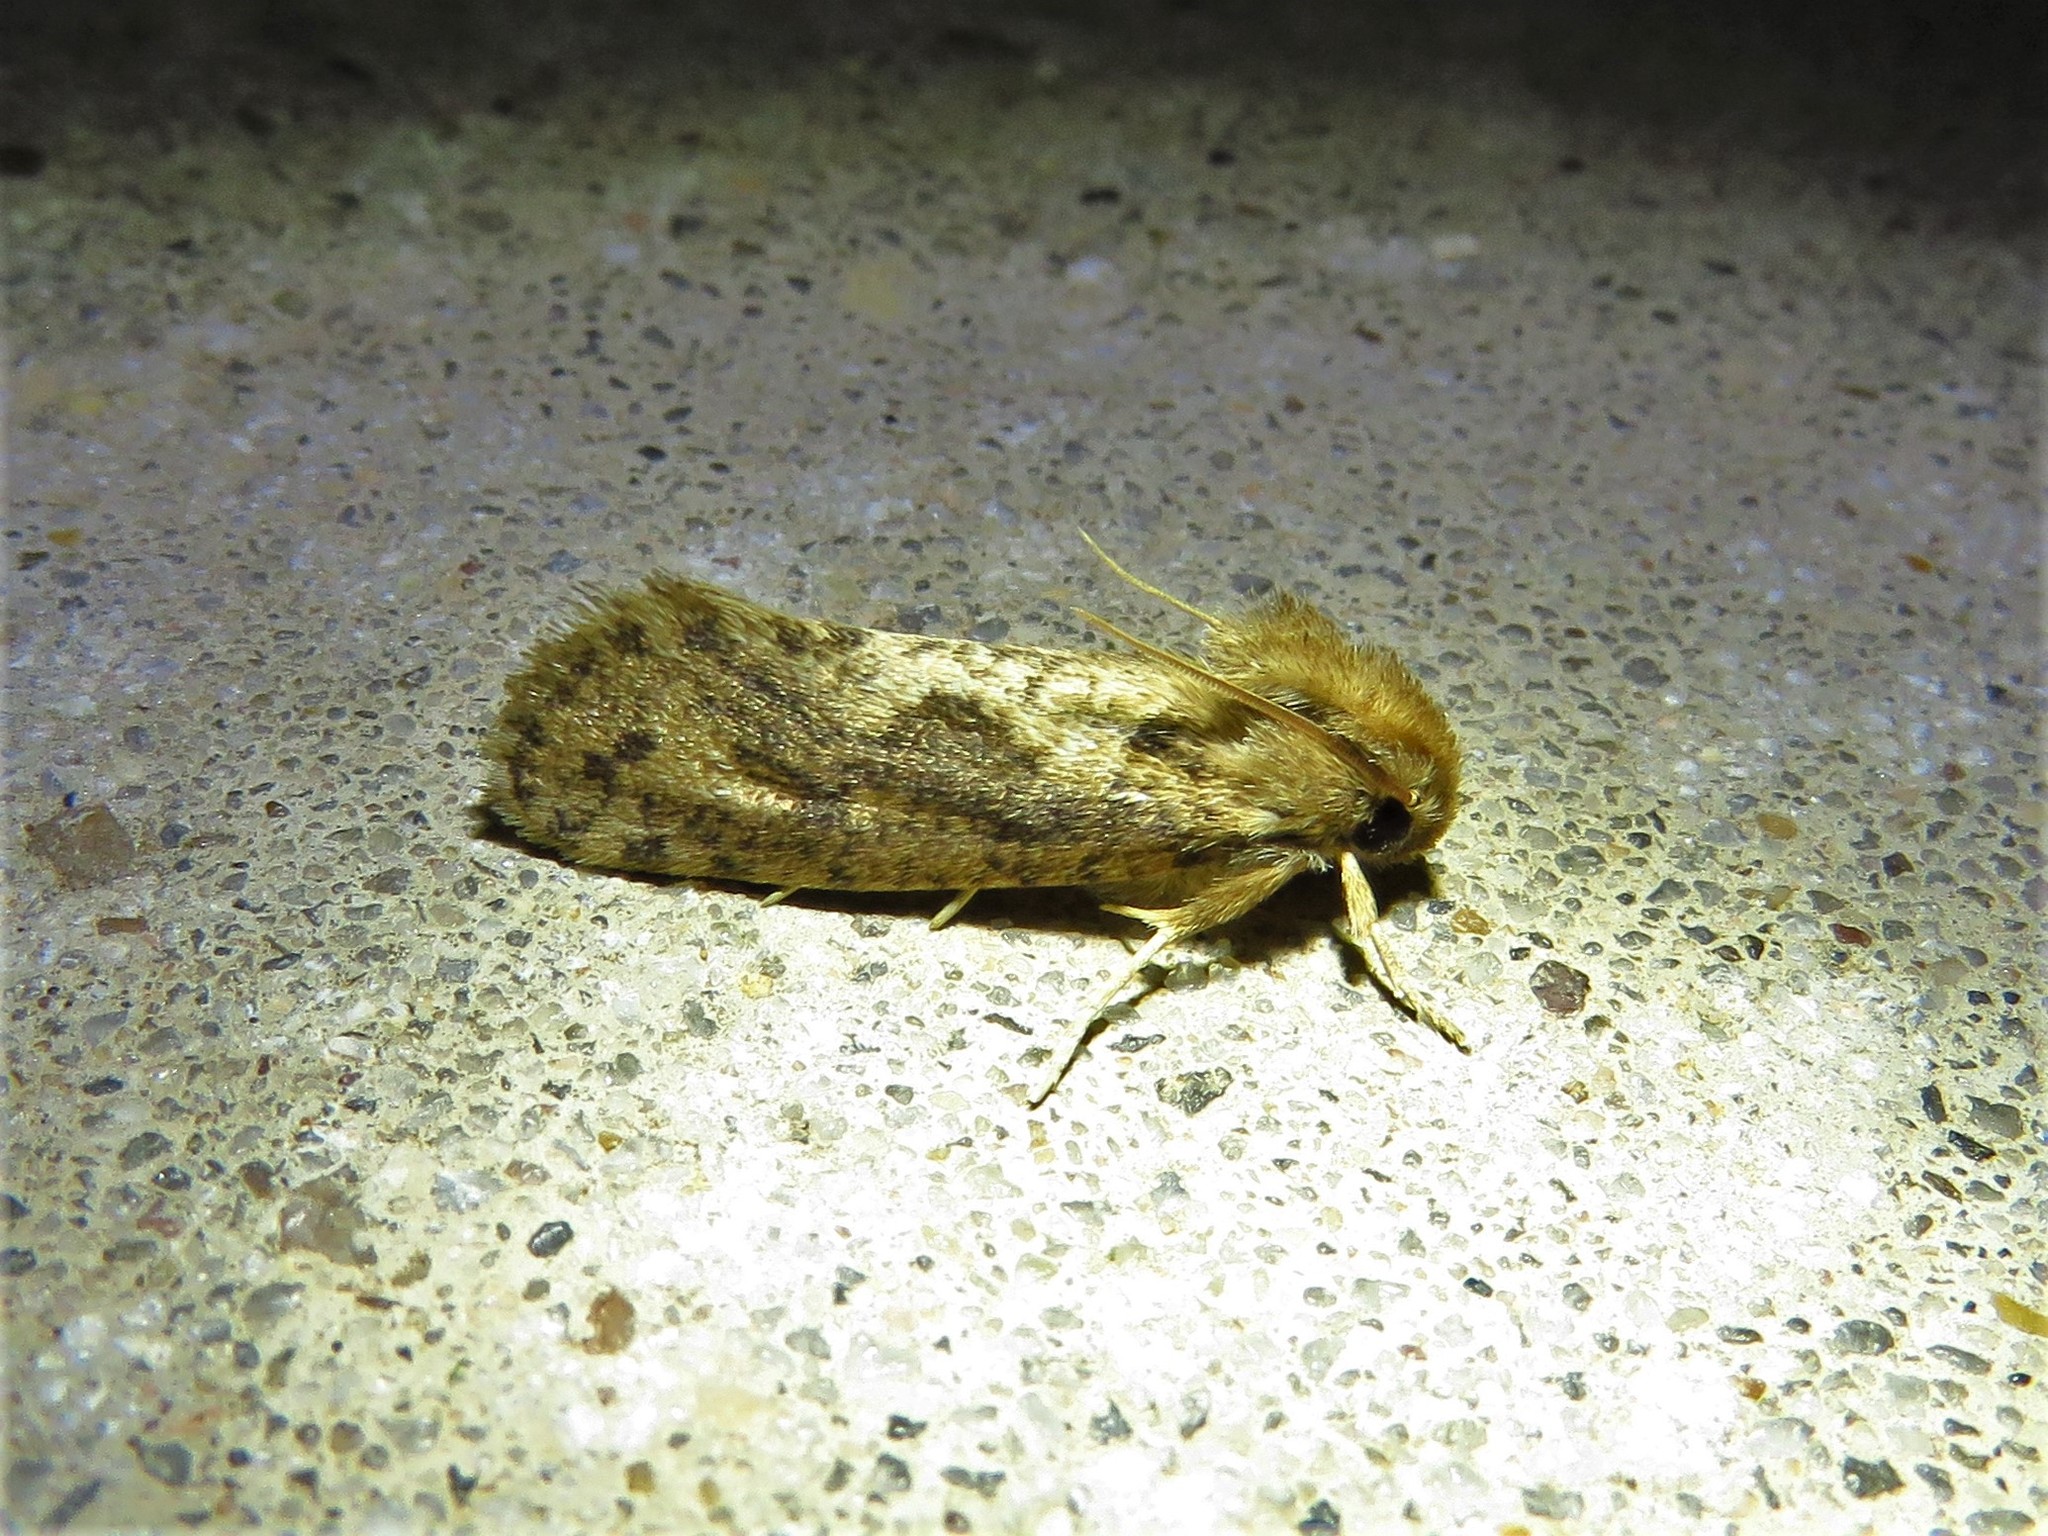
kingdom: Animalia
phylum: Arthropoda
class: Insecta
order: Lepidoptera
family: Tineidae
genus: Acrolophus
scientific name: Acrolophus popeanella
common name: Clemens' grass tubeworm moth
